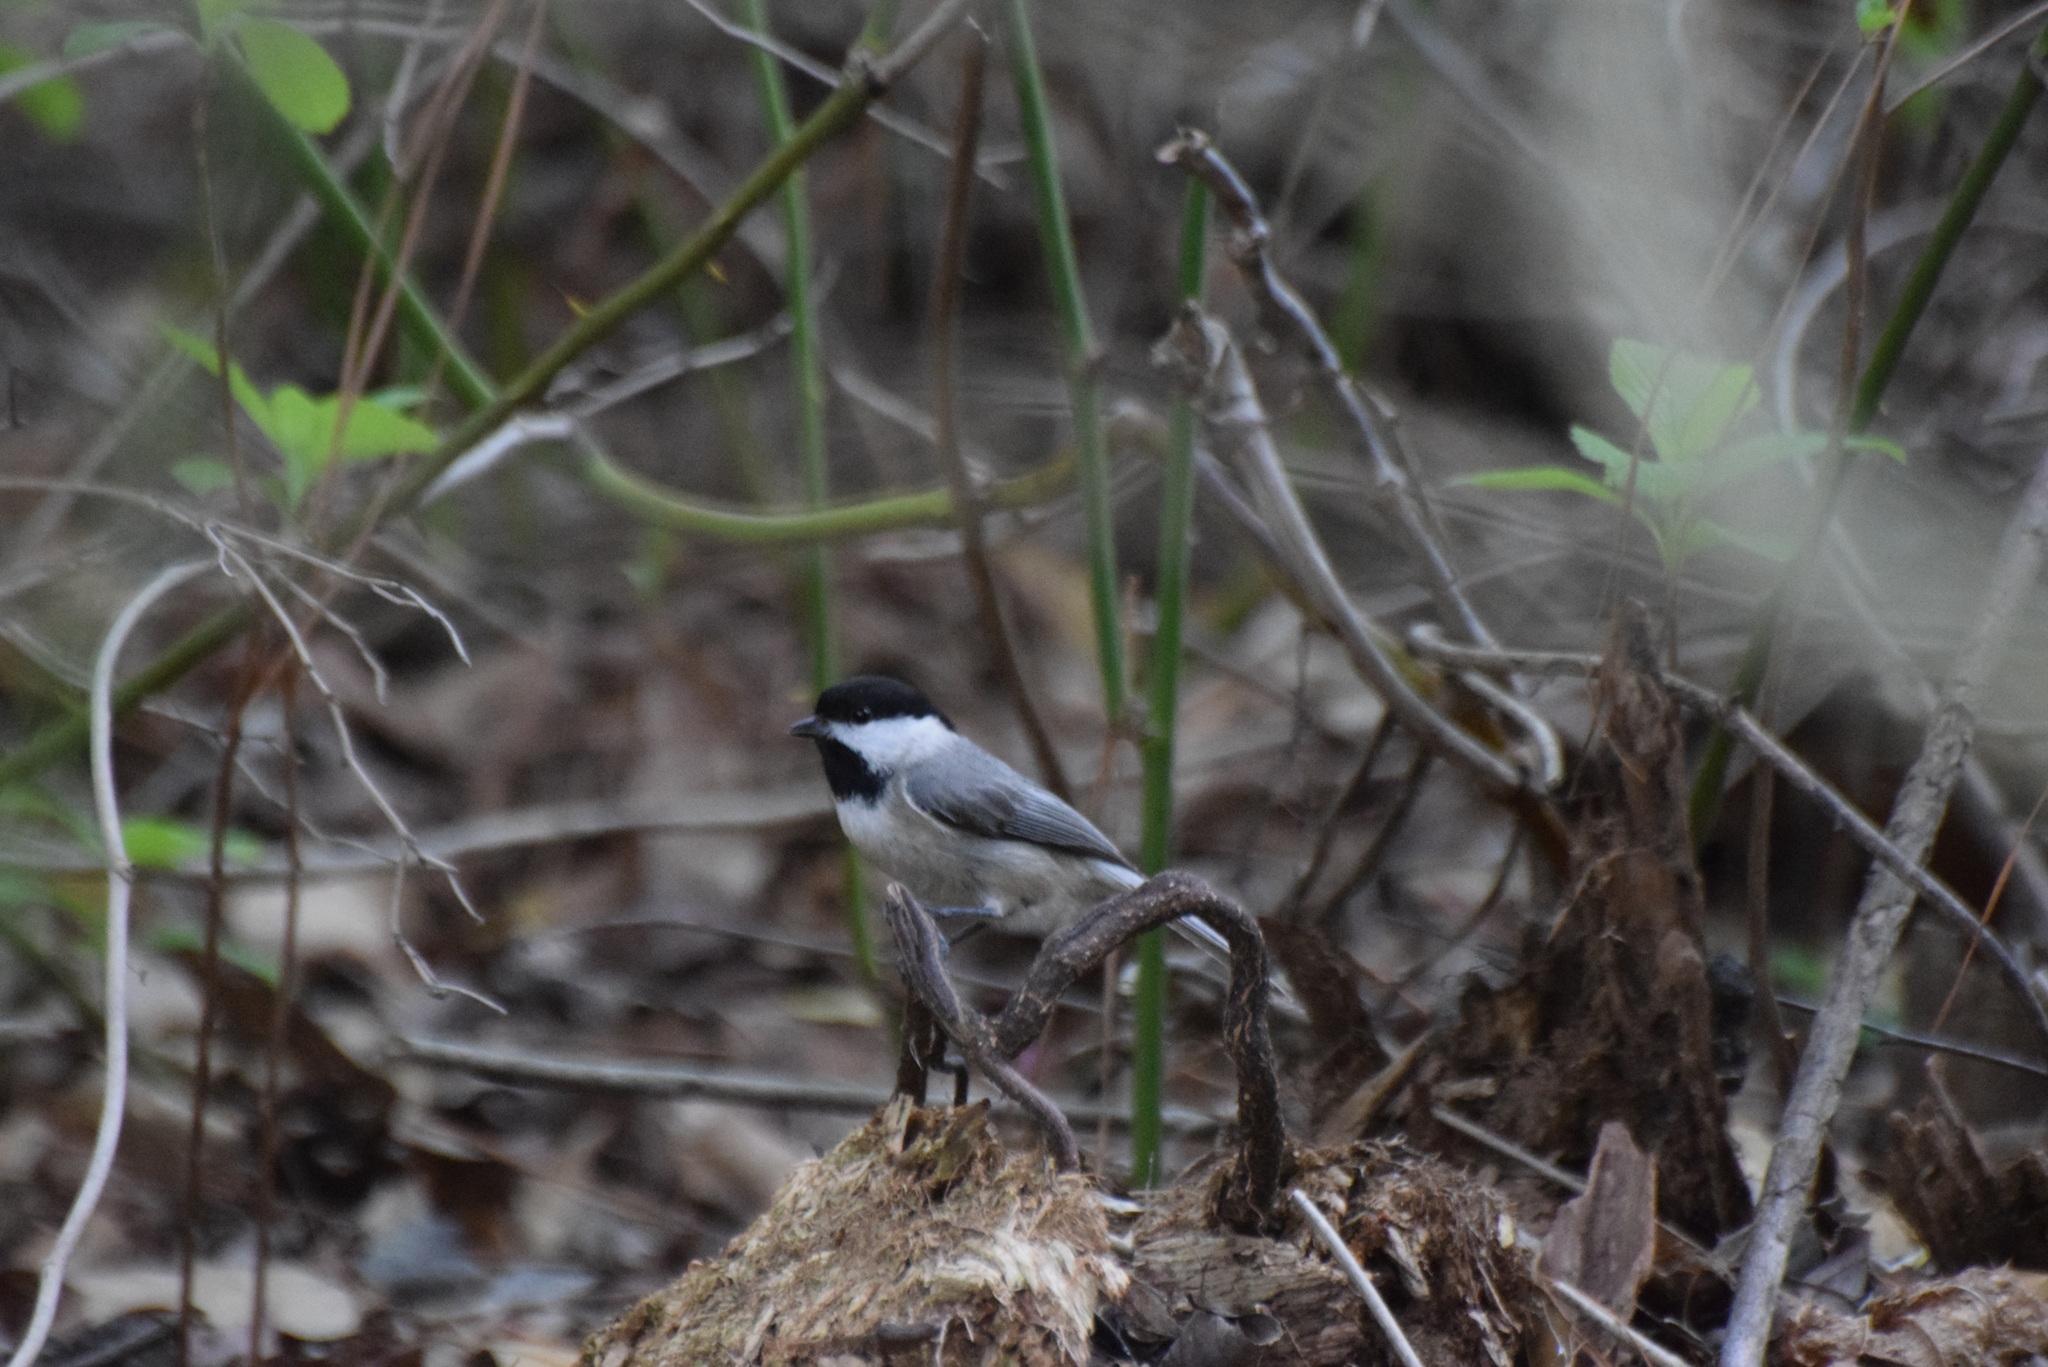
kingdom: Animalia
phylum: Chordata
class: Aves
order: Passeriformes
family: Paridae
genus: Poecile
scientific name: Poecile carolinensis
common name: Carolina chickadee
